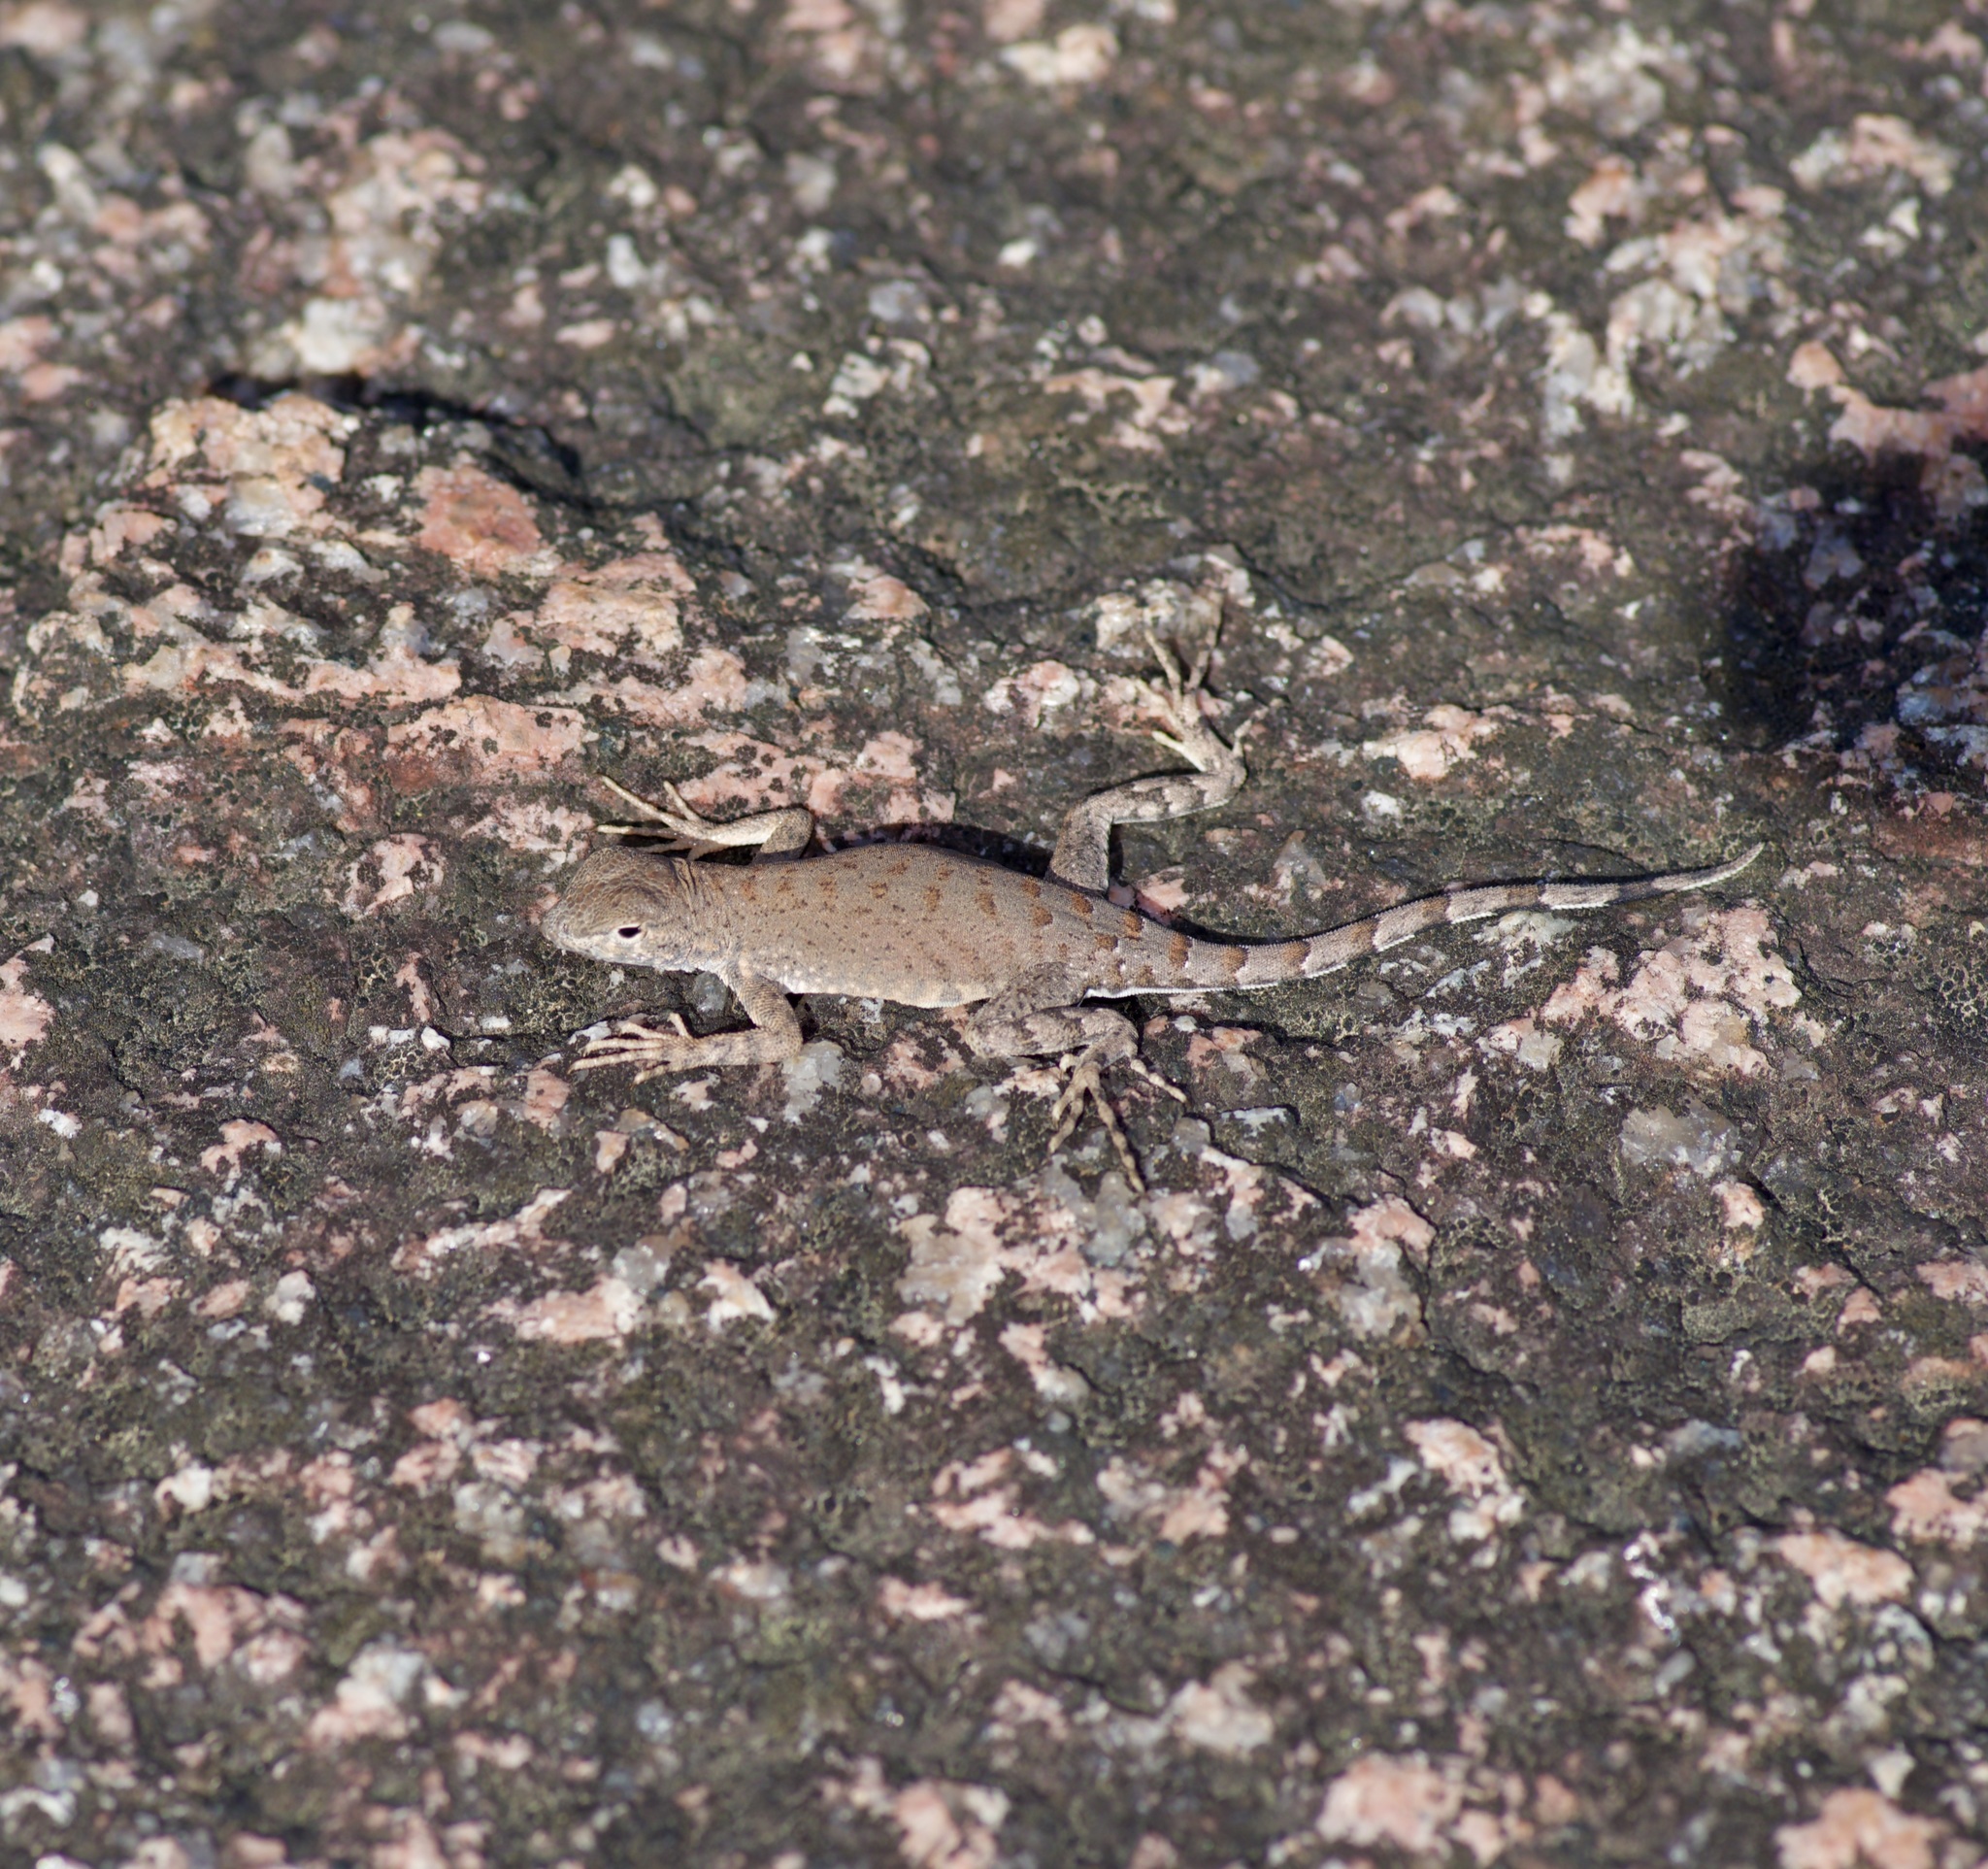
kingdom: Animalia
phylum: Chordata
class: Squamata
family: Phrynosomatidae
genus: Cophosaurus
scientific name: Cophosaurus texanus
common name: Greater earless lizard
